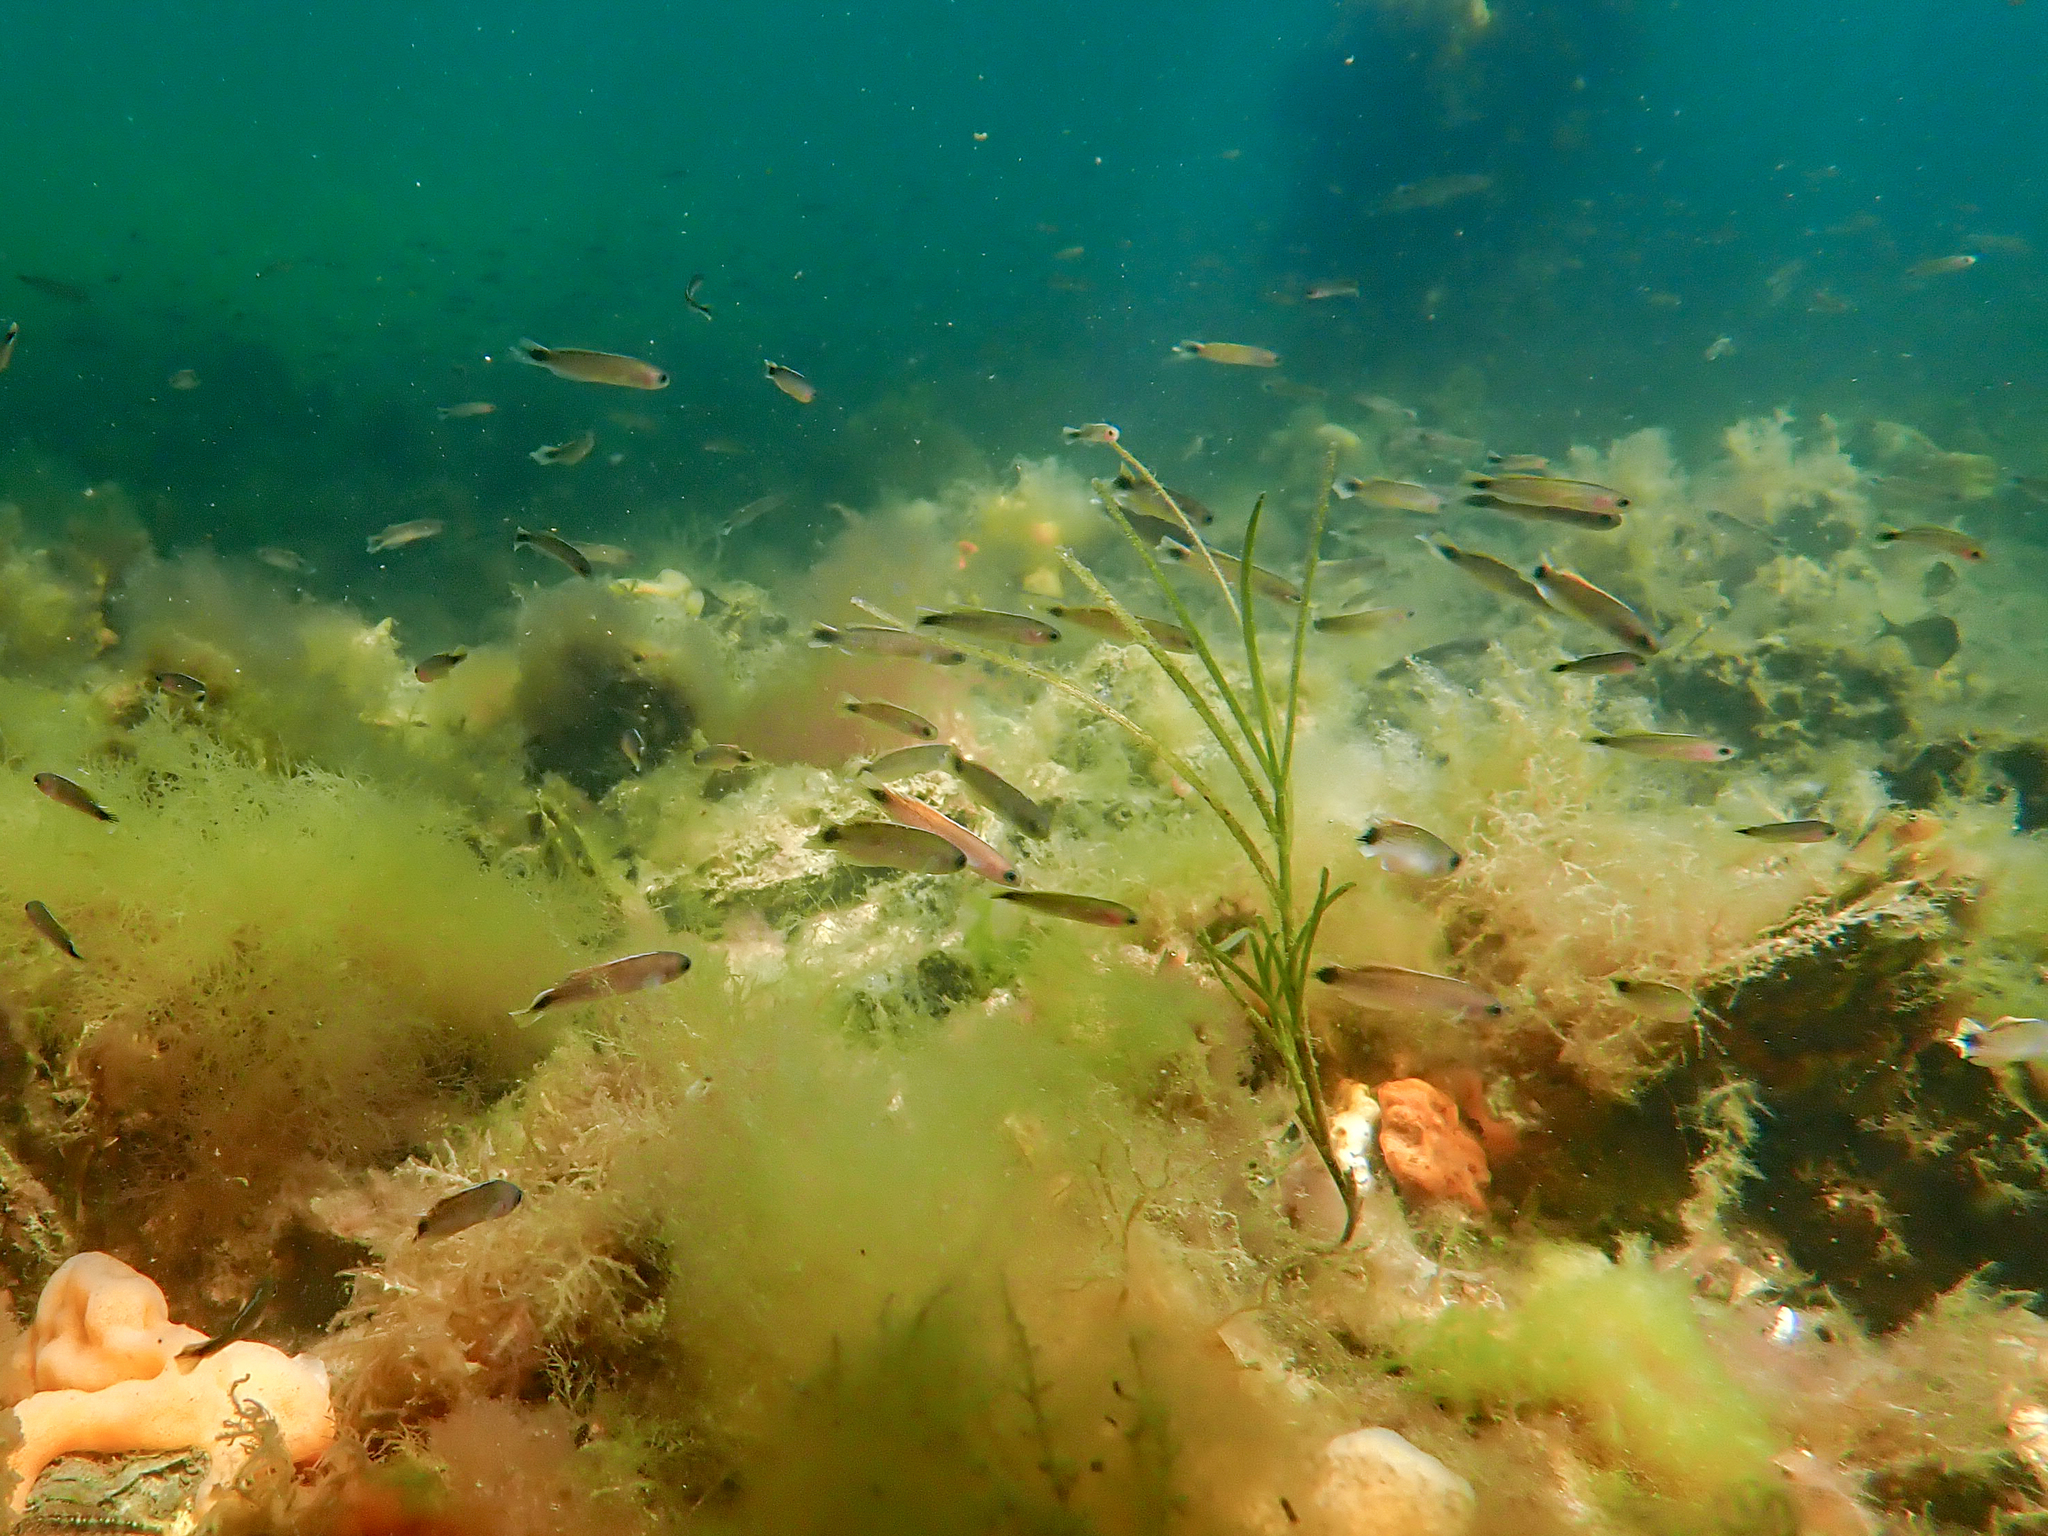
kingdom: Animalia
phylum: Chordata
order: Perciformes
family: Plesiopidae
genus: Trachinops
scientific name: Trachinops caudimaculatus
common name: Blotched-tailed trachinops
